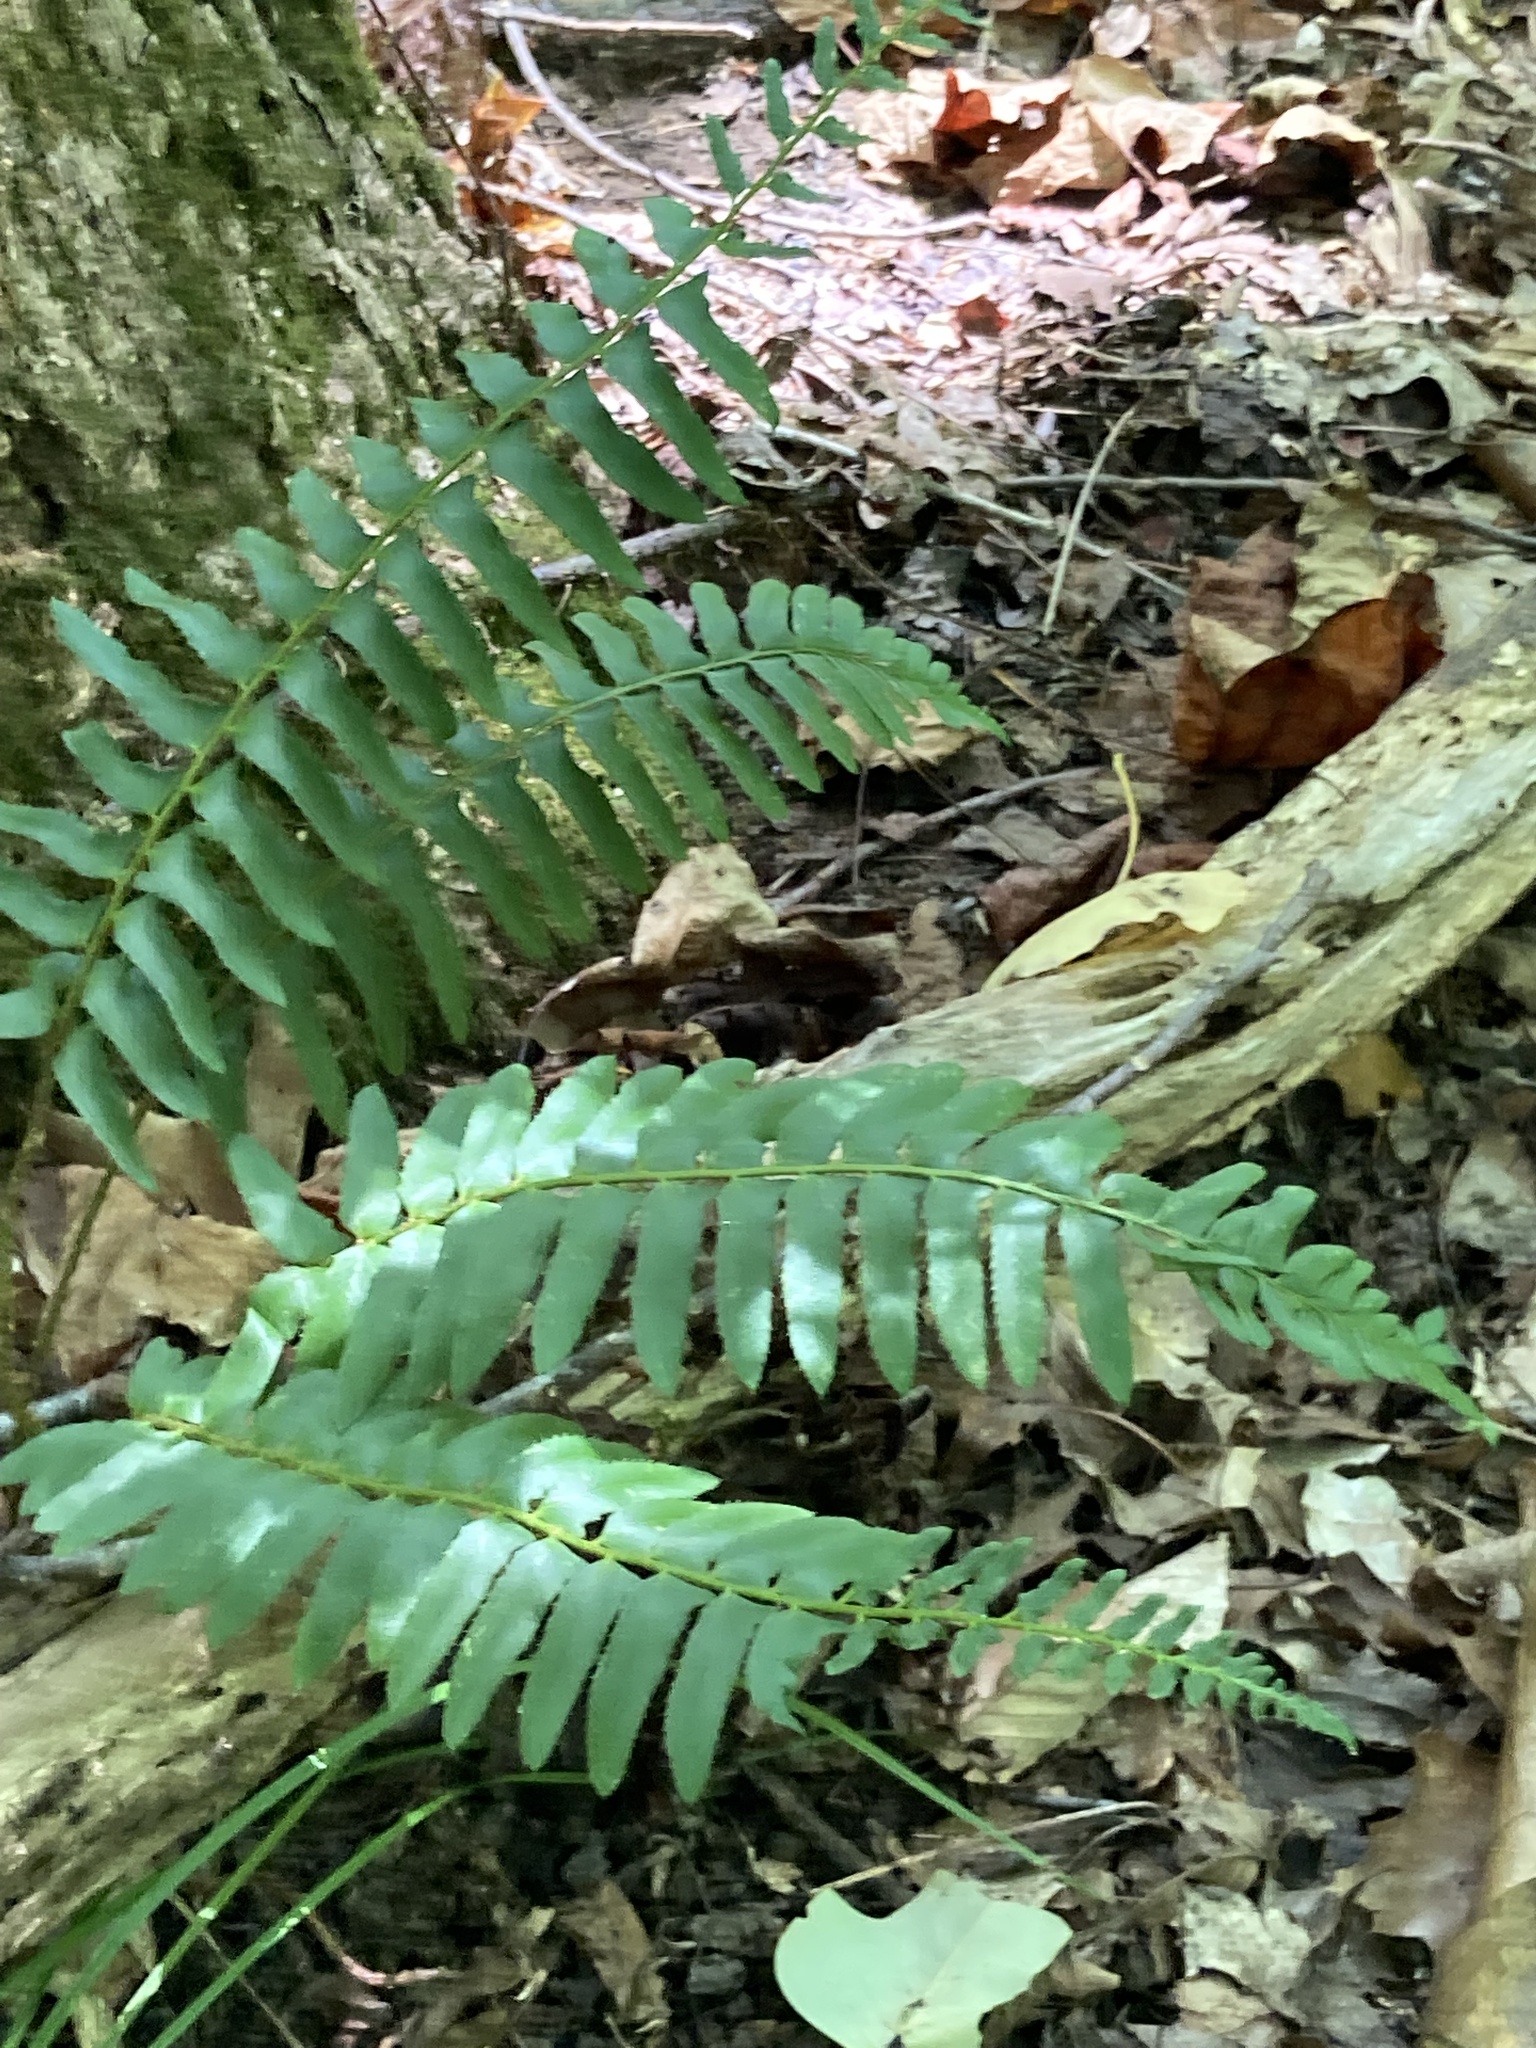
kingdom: Plantae
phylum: Tracheophyta
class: Polypodiopsida
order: Polypodiales
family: Dryopteridaceae
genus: Polystichum
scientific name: Polystichum acrostichoides
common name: Christmas fern
